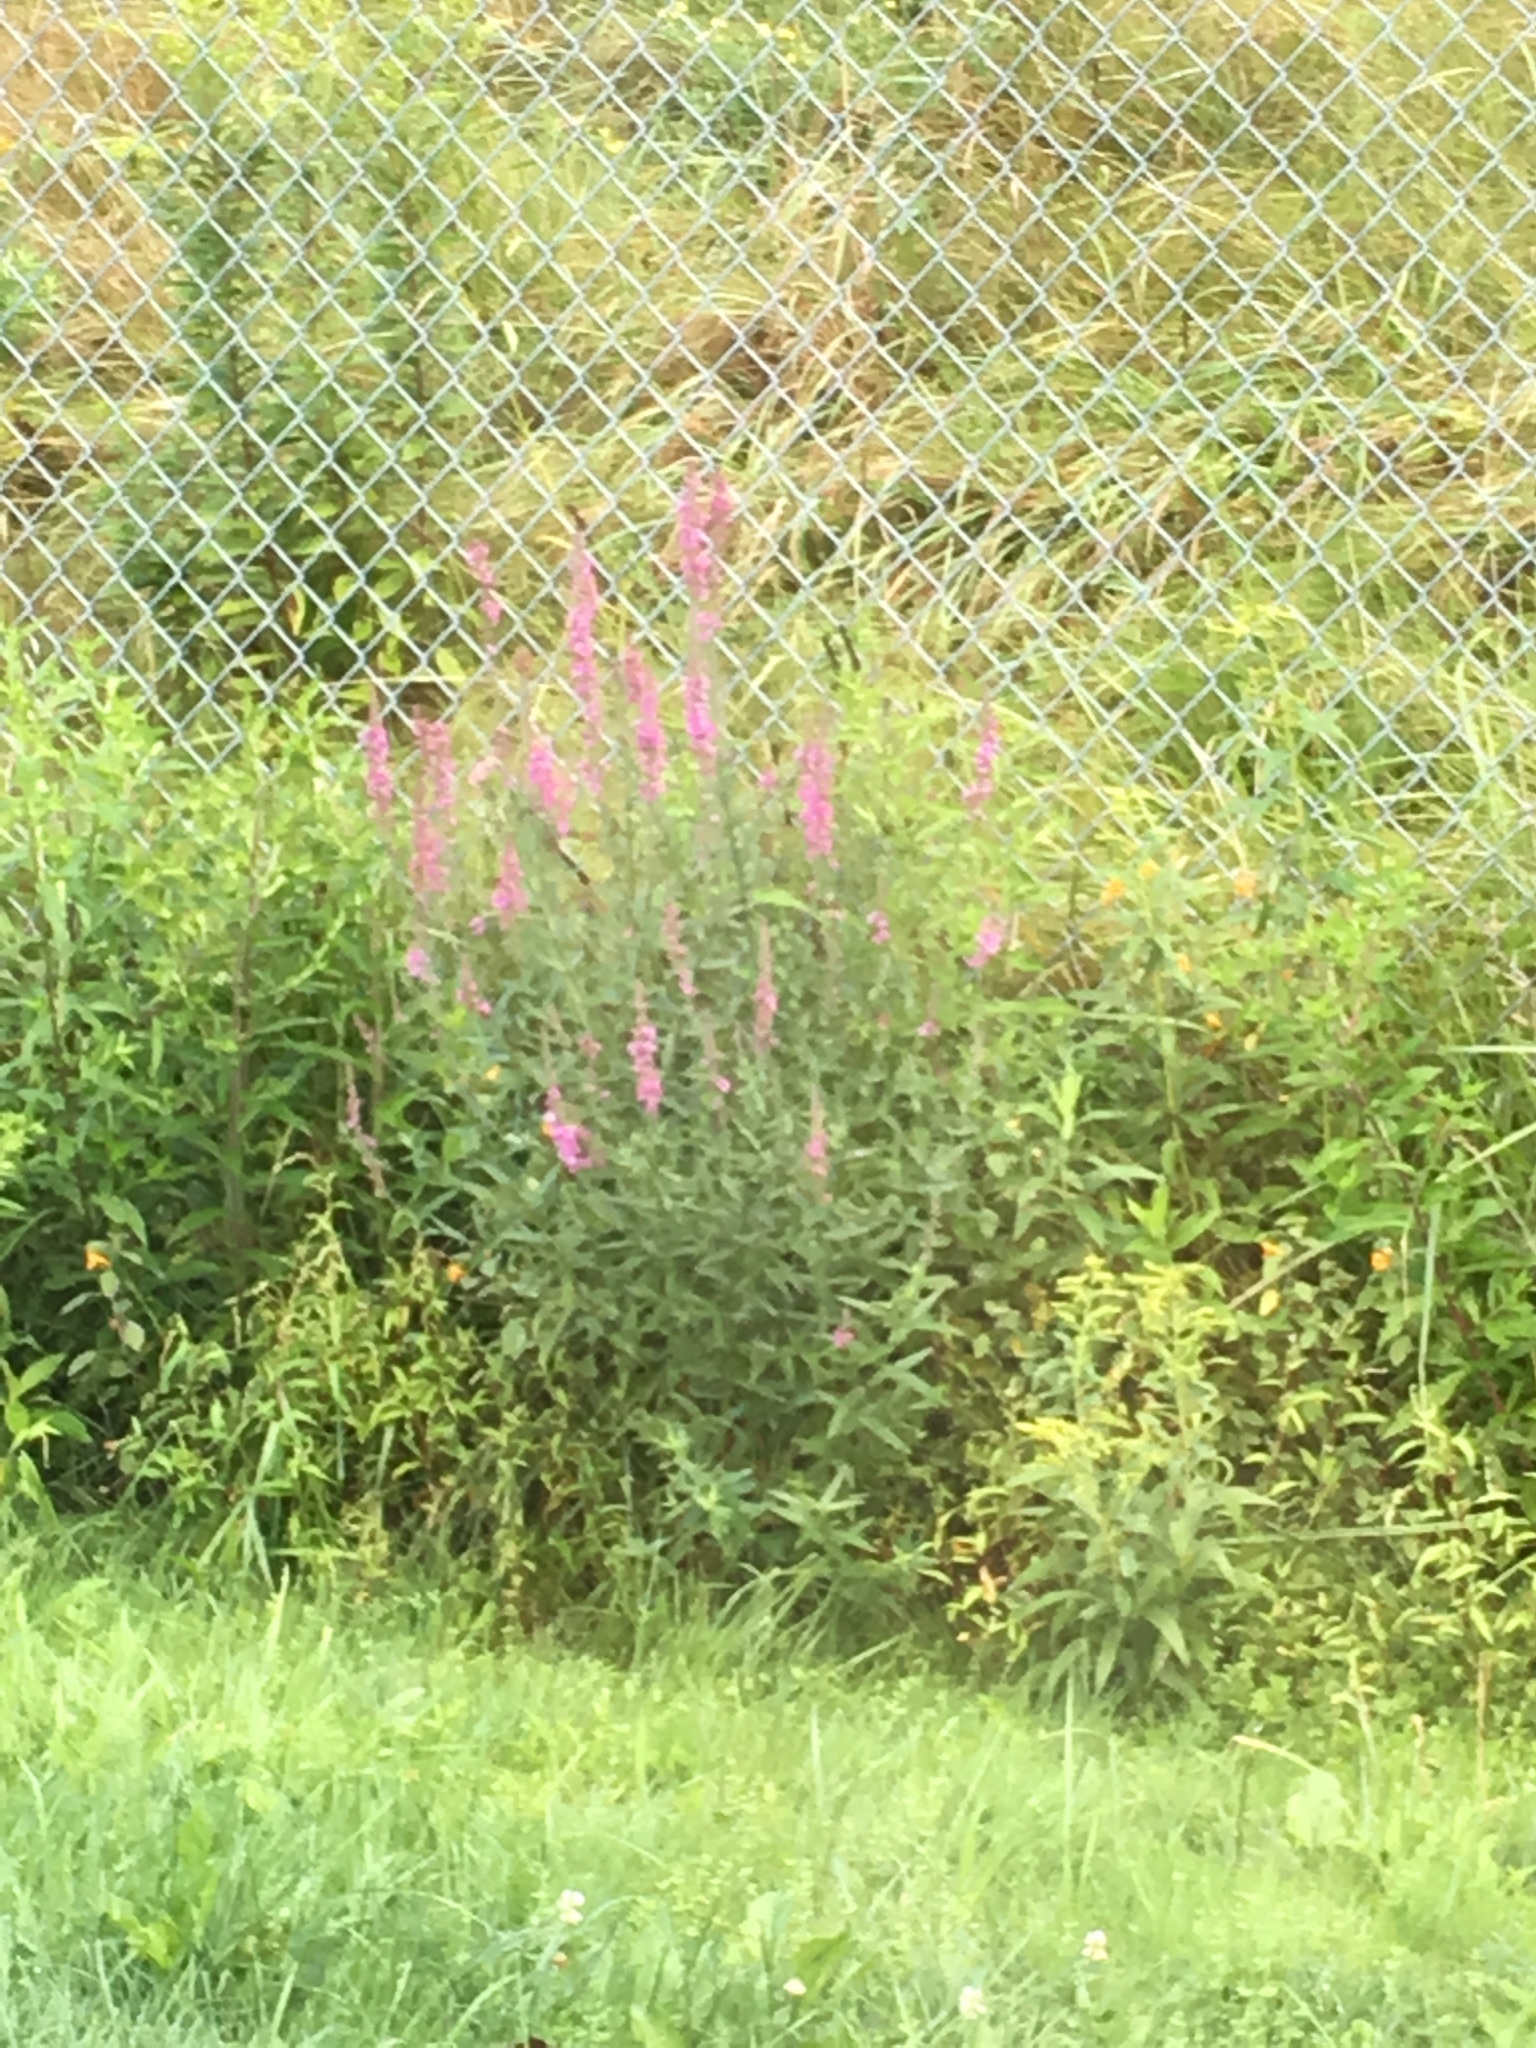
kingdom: Plantae
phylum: Tracheophyta
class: Magnoliopsida
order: Myrtales
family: Lythraceae
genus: Lythrum
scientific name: Lythrum salicaria
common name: Purple loosestrife
